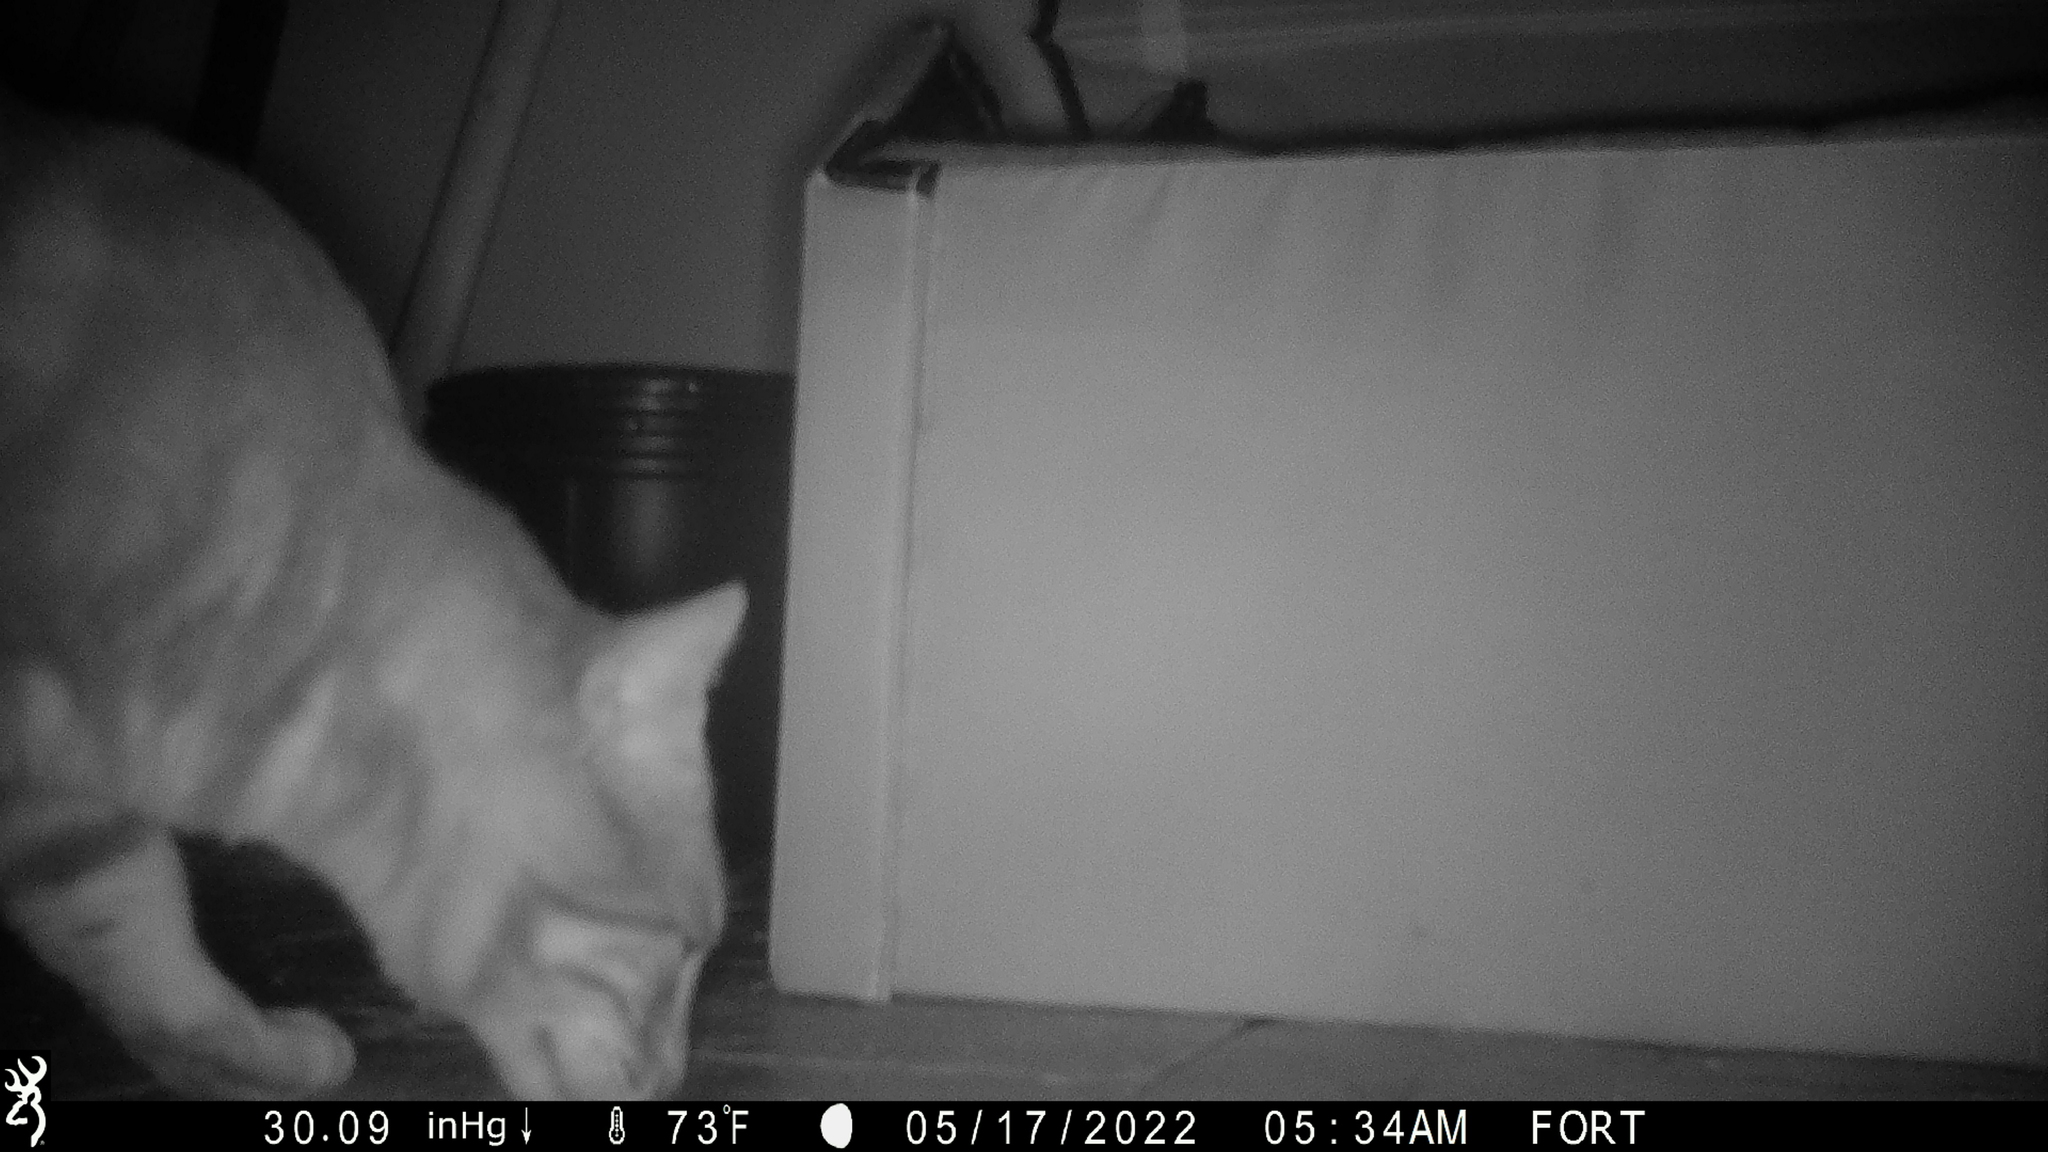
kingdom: Animalia
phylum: Chordata
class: Mammalia
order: Carnivora
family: Felidae
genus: Felis
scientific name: Felis catus
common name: Domestic cat
